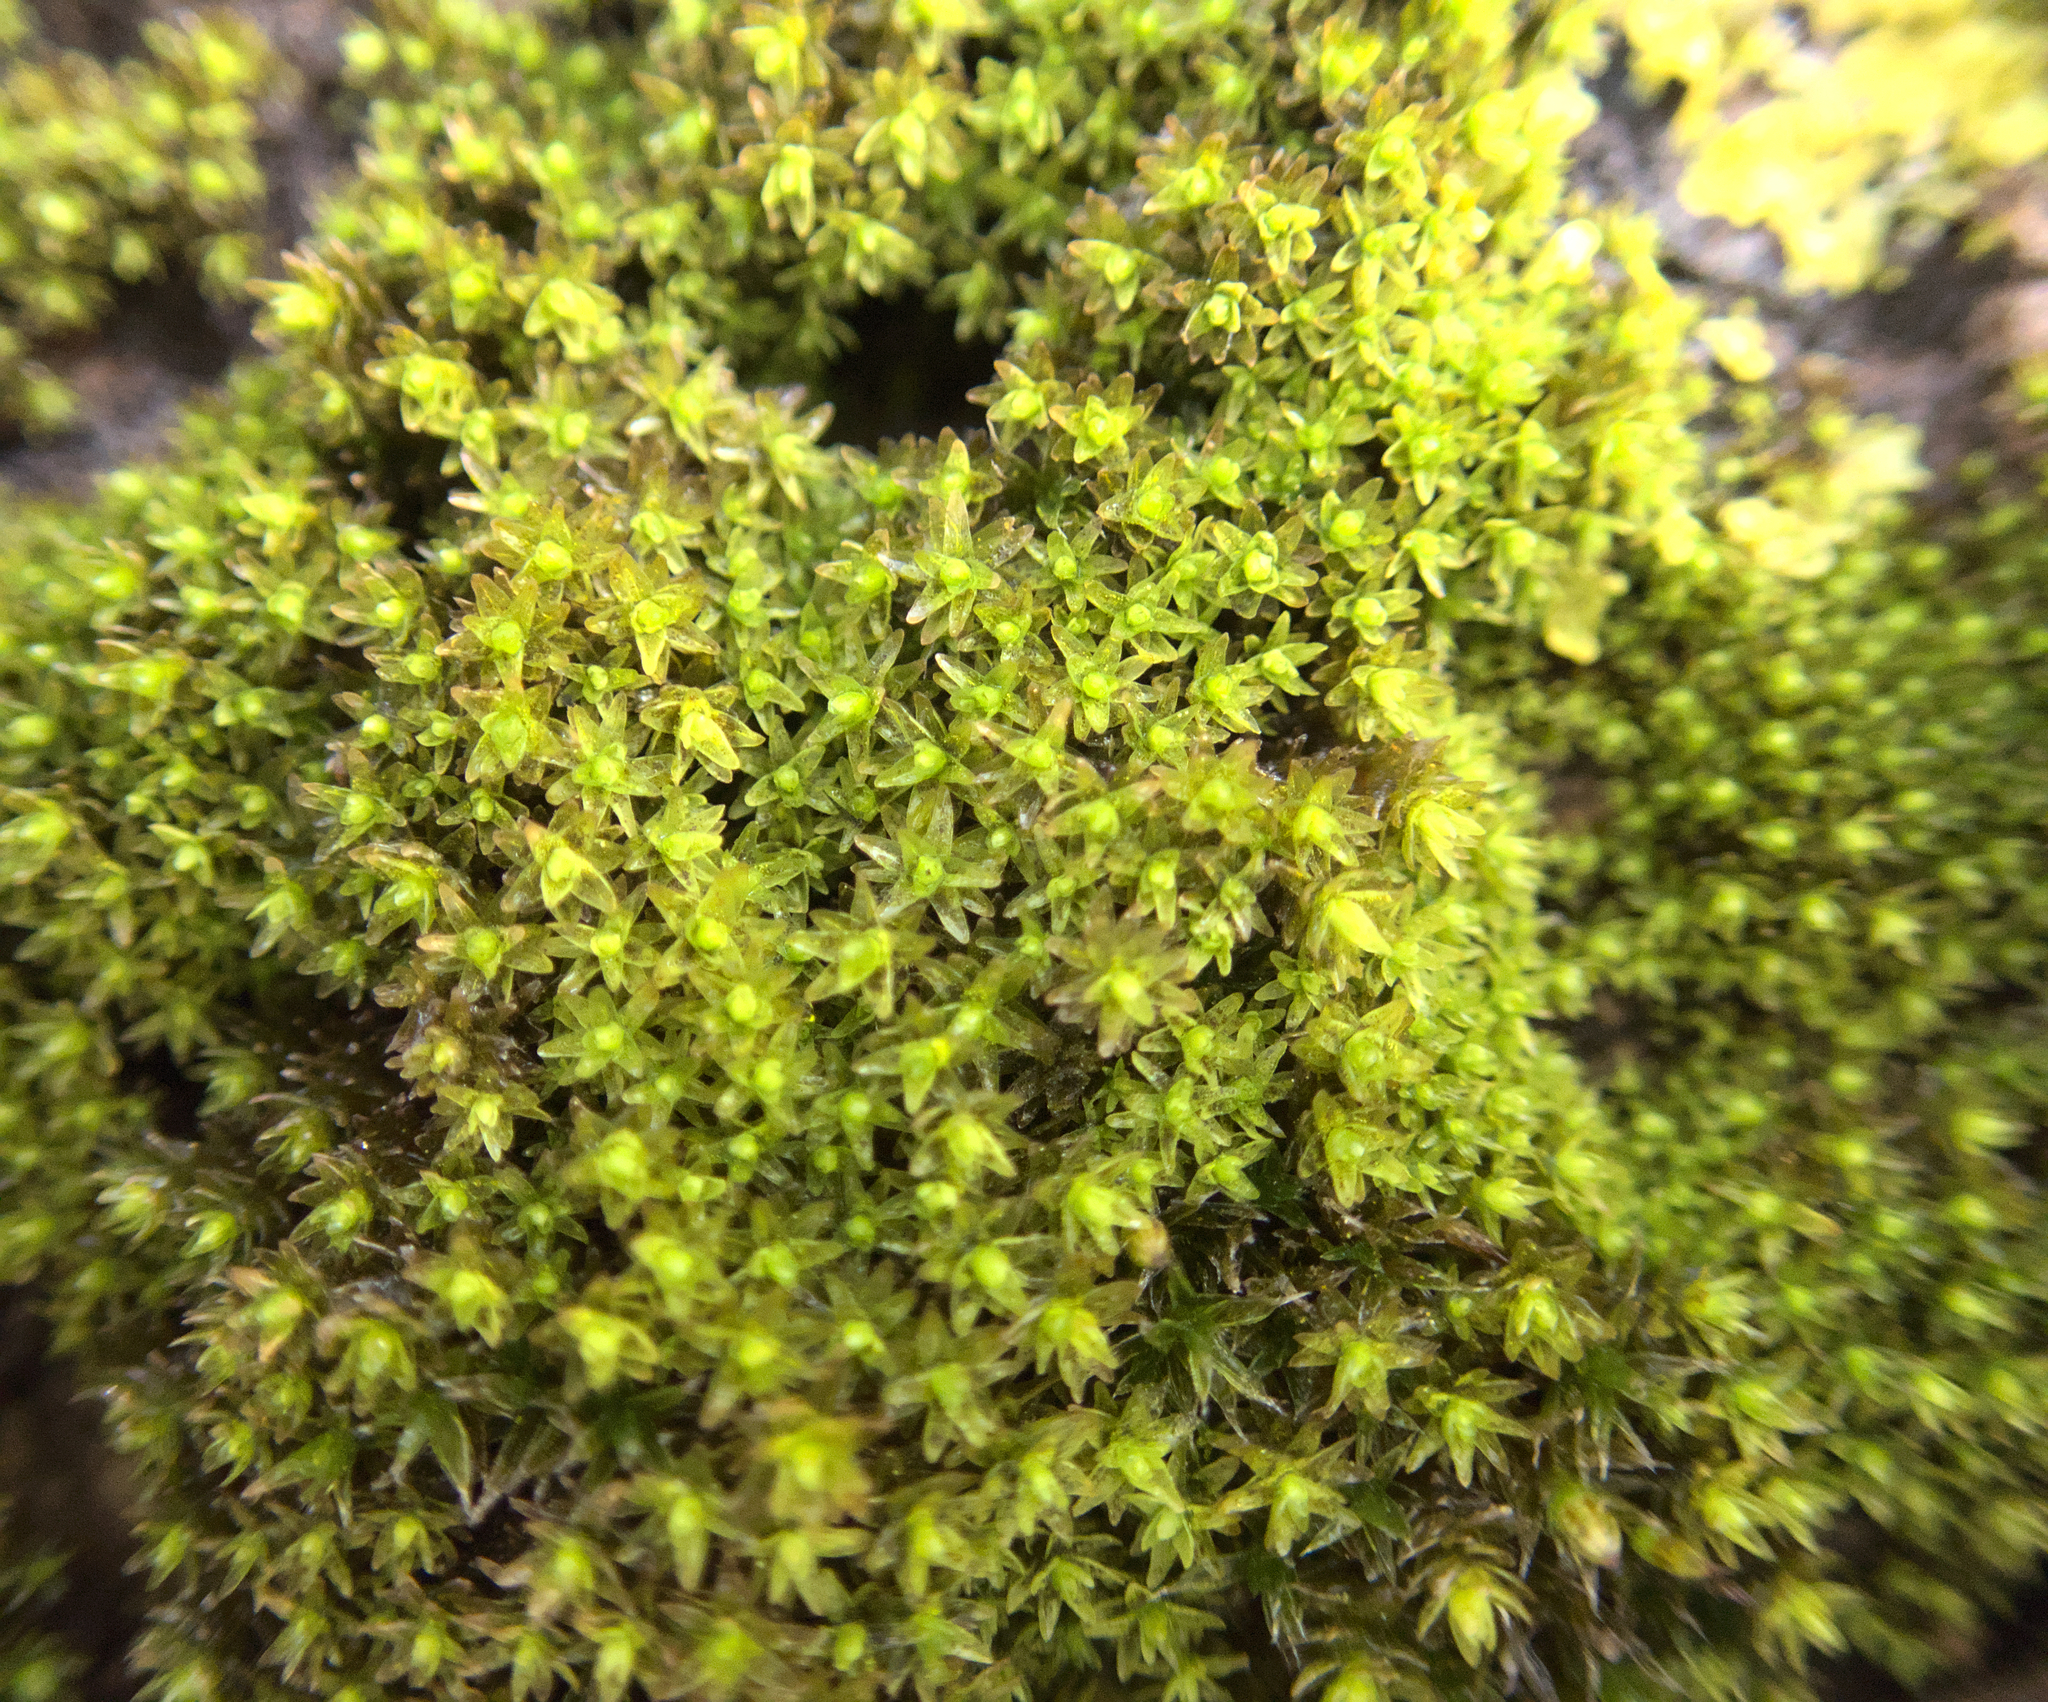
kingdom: Plantae
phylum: Bryophyta
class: Bryopsida
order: Orthotrichales
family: Orthotrichaceae
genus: Nyholmiella
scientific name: Nyholmiella obtusifolia
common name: Blunt-leaved bristle-moss
